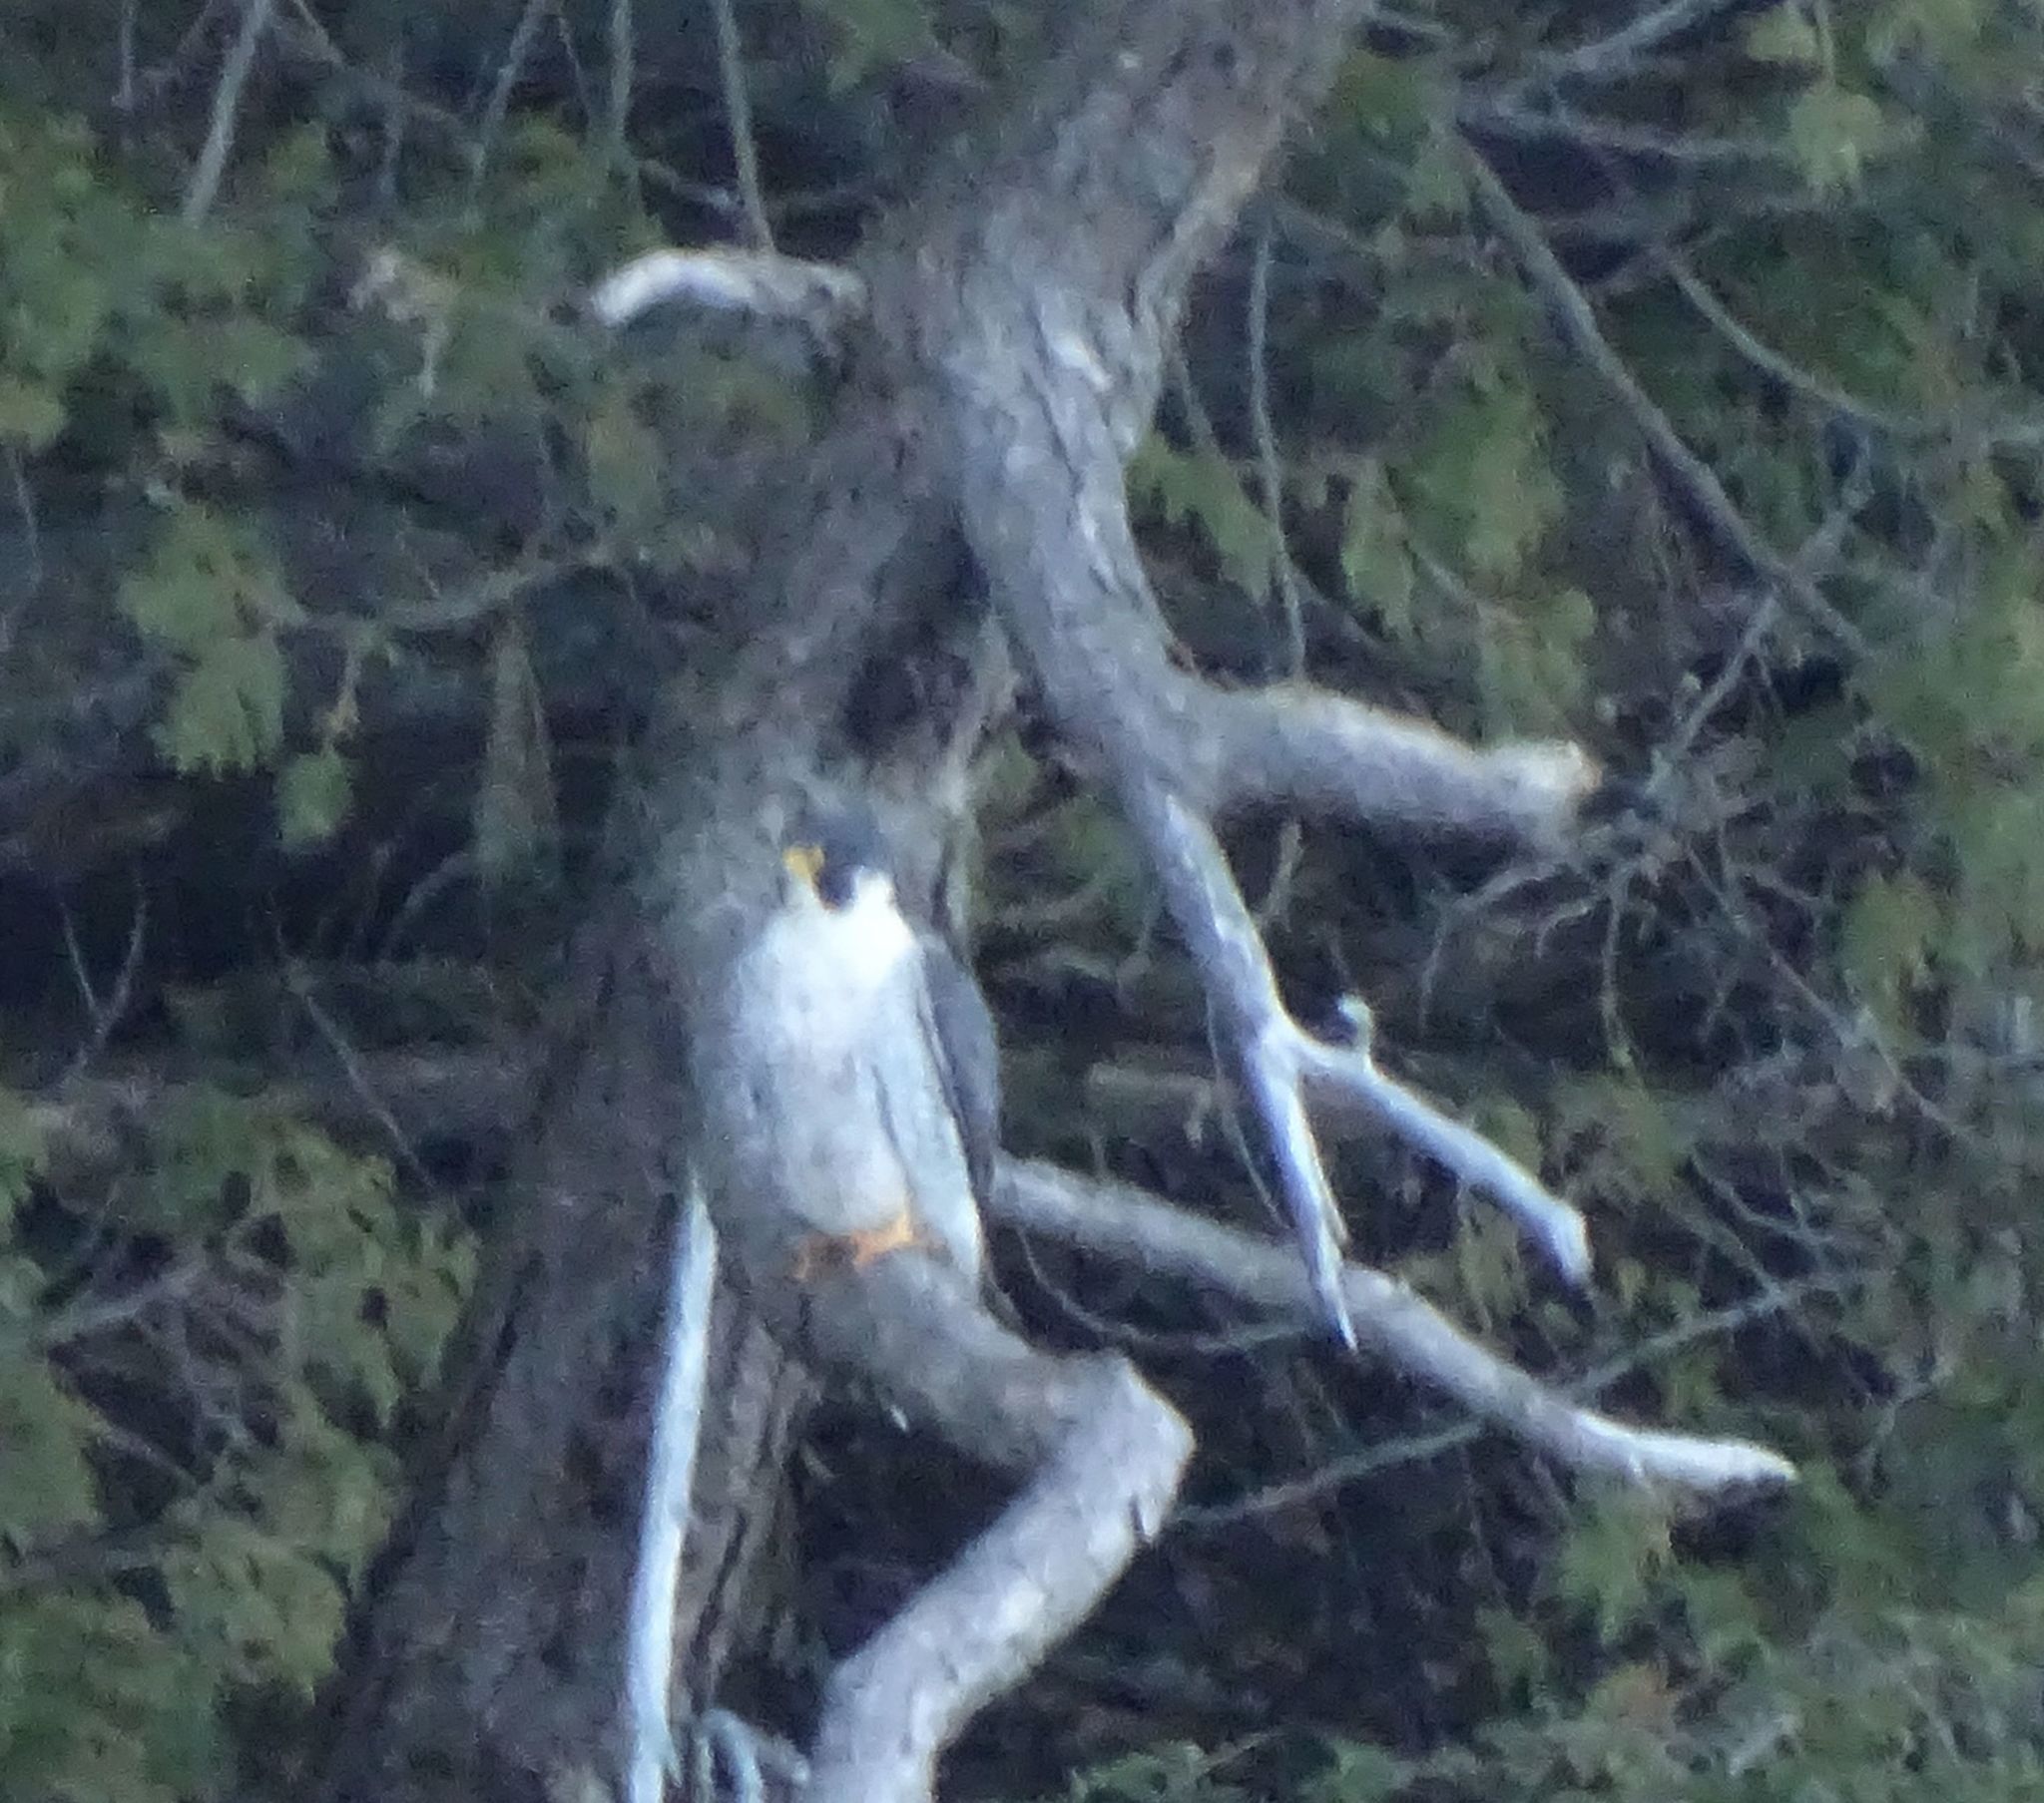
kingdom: Animalia
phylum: Chordata
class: Aves
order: Falconiformes
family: Falconidae
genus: Falco
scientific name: Falco peregrinus
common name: Peregrine falcon
